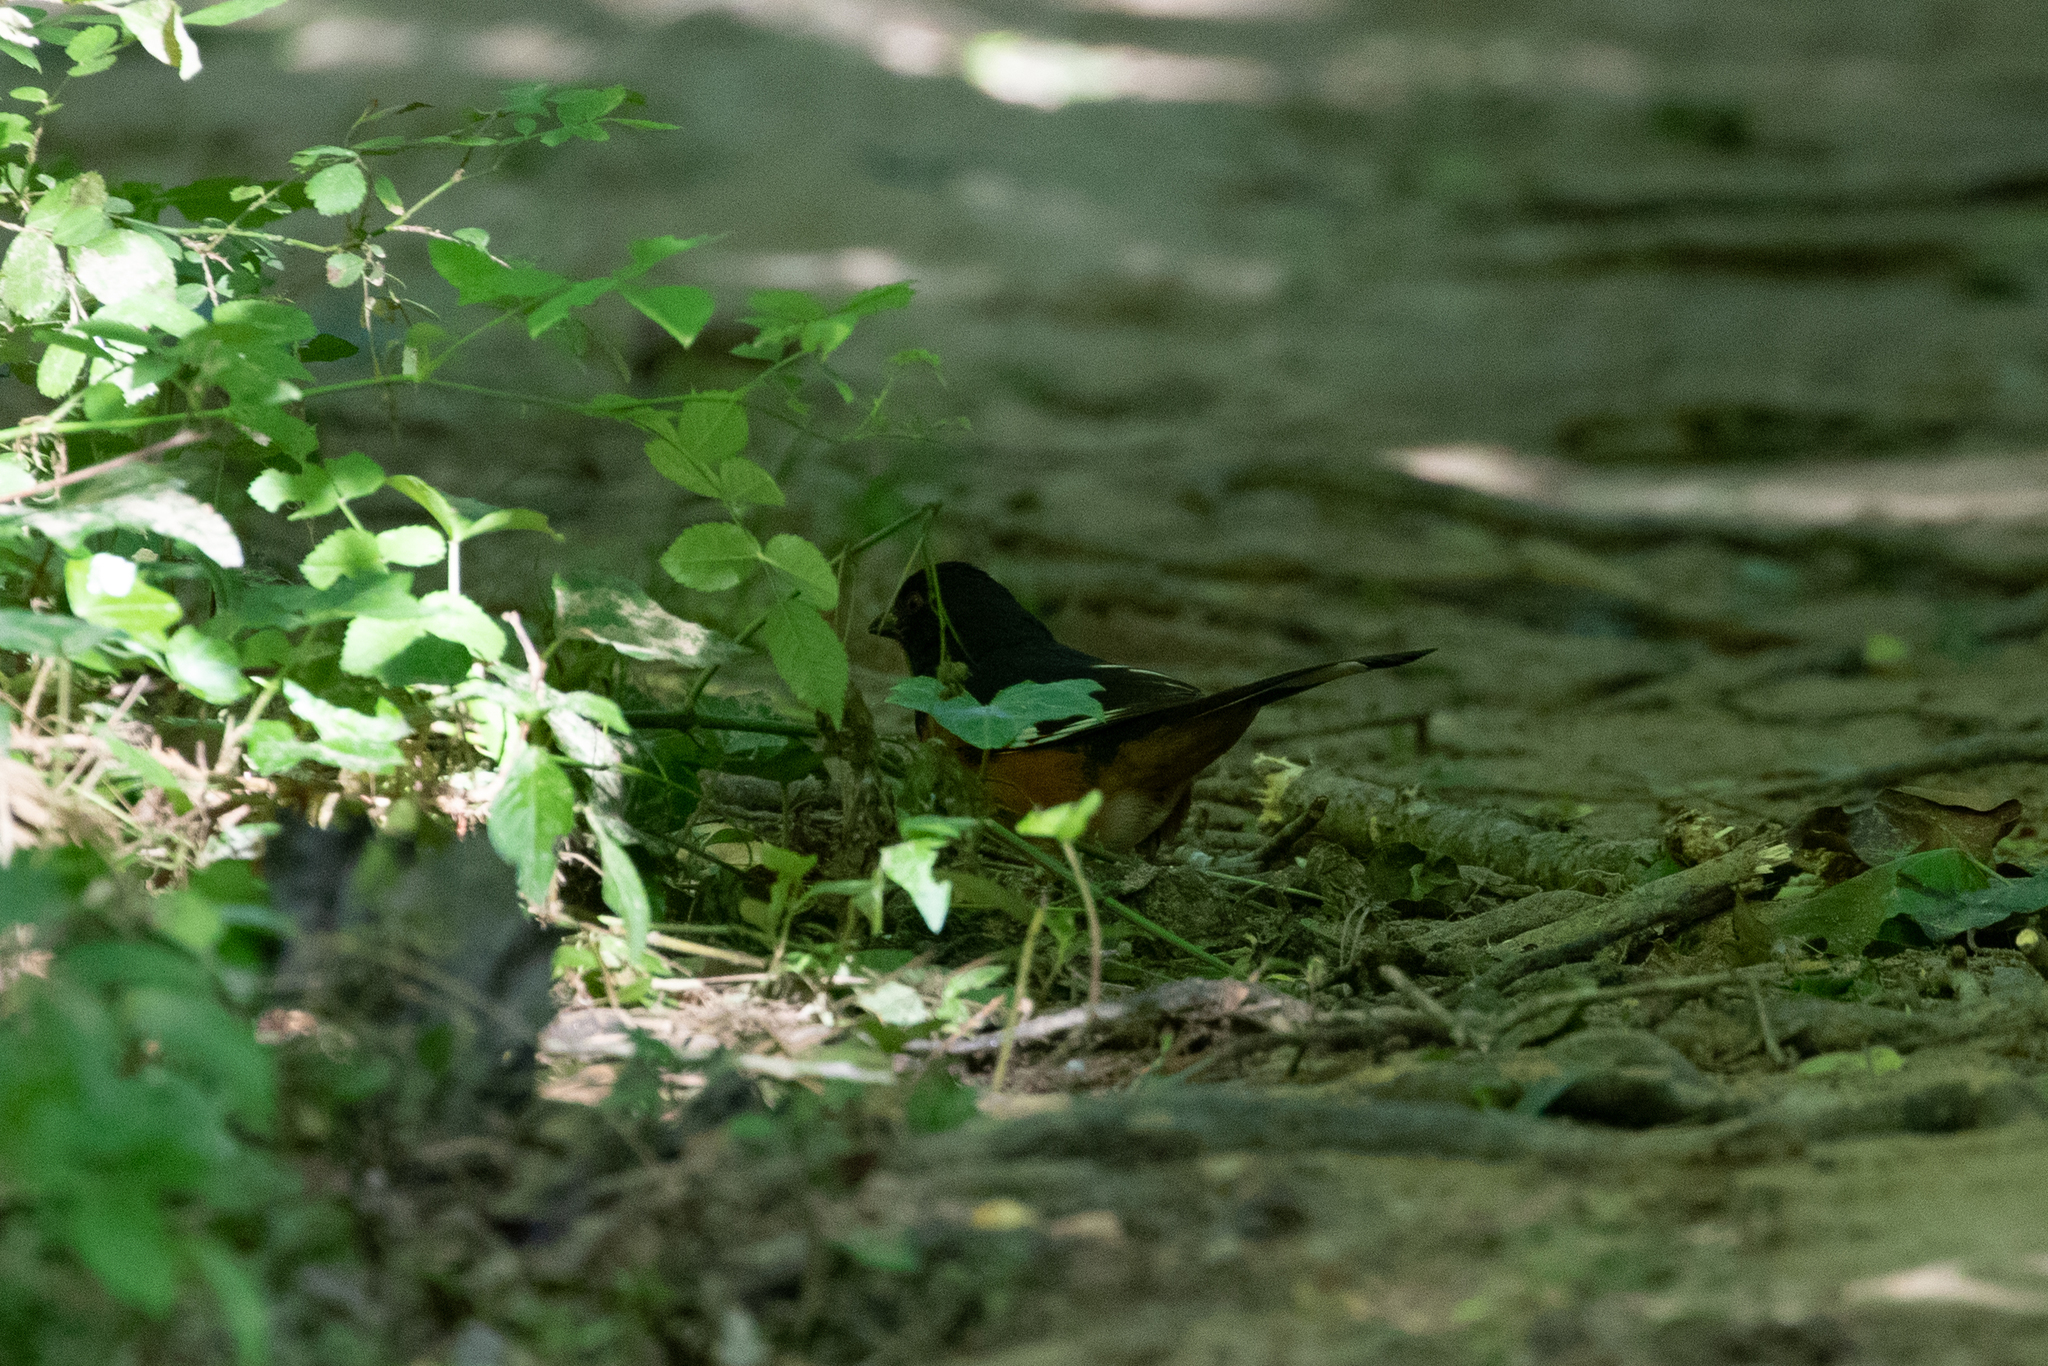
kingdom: Animalia
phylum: Chordata
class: Aves
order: Passeriformes
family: Passerellidae
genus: Pipilo
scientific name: Pipilo erythrophthalmus
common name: Eastern towhee
